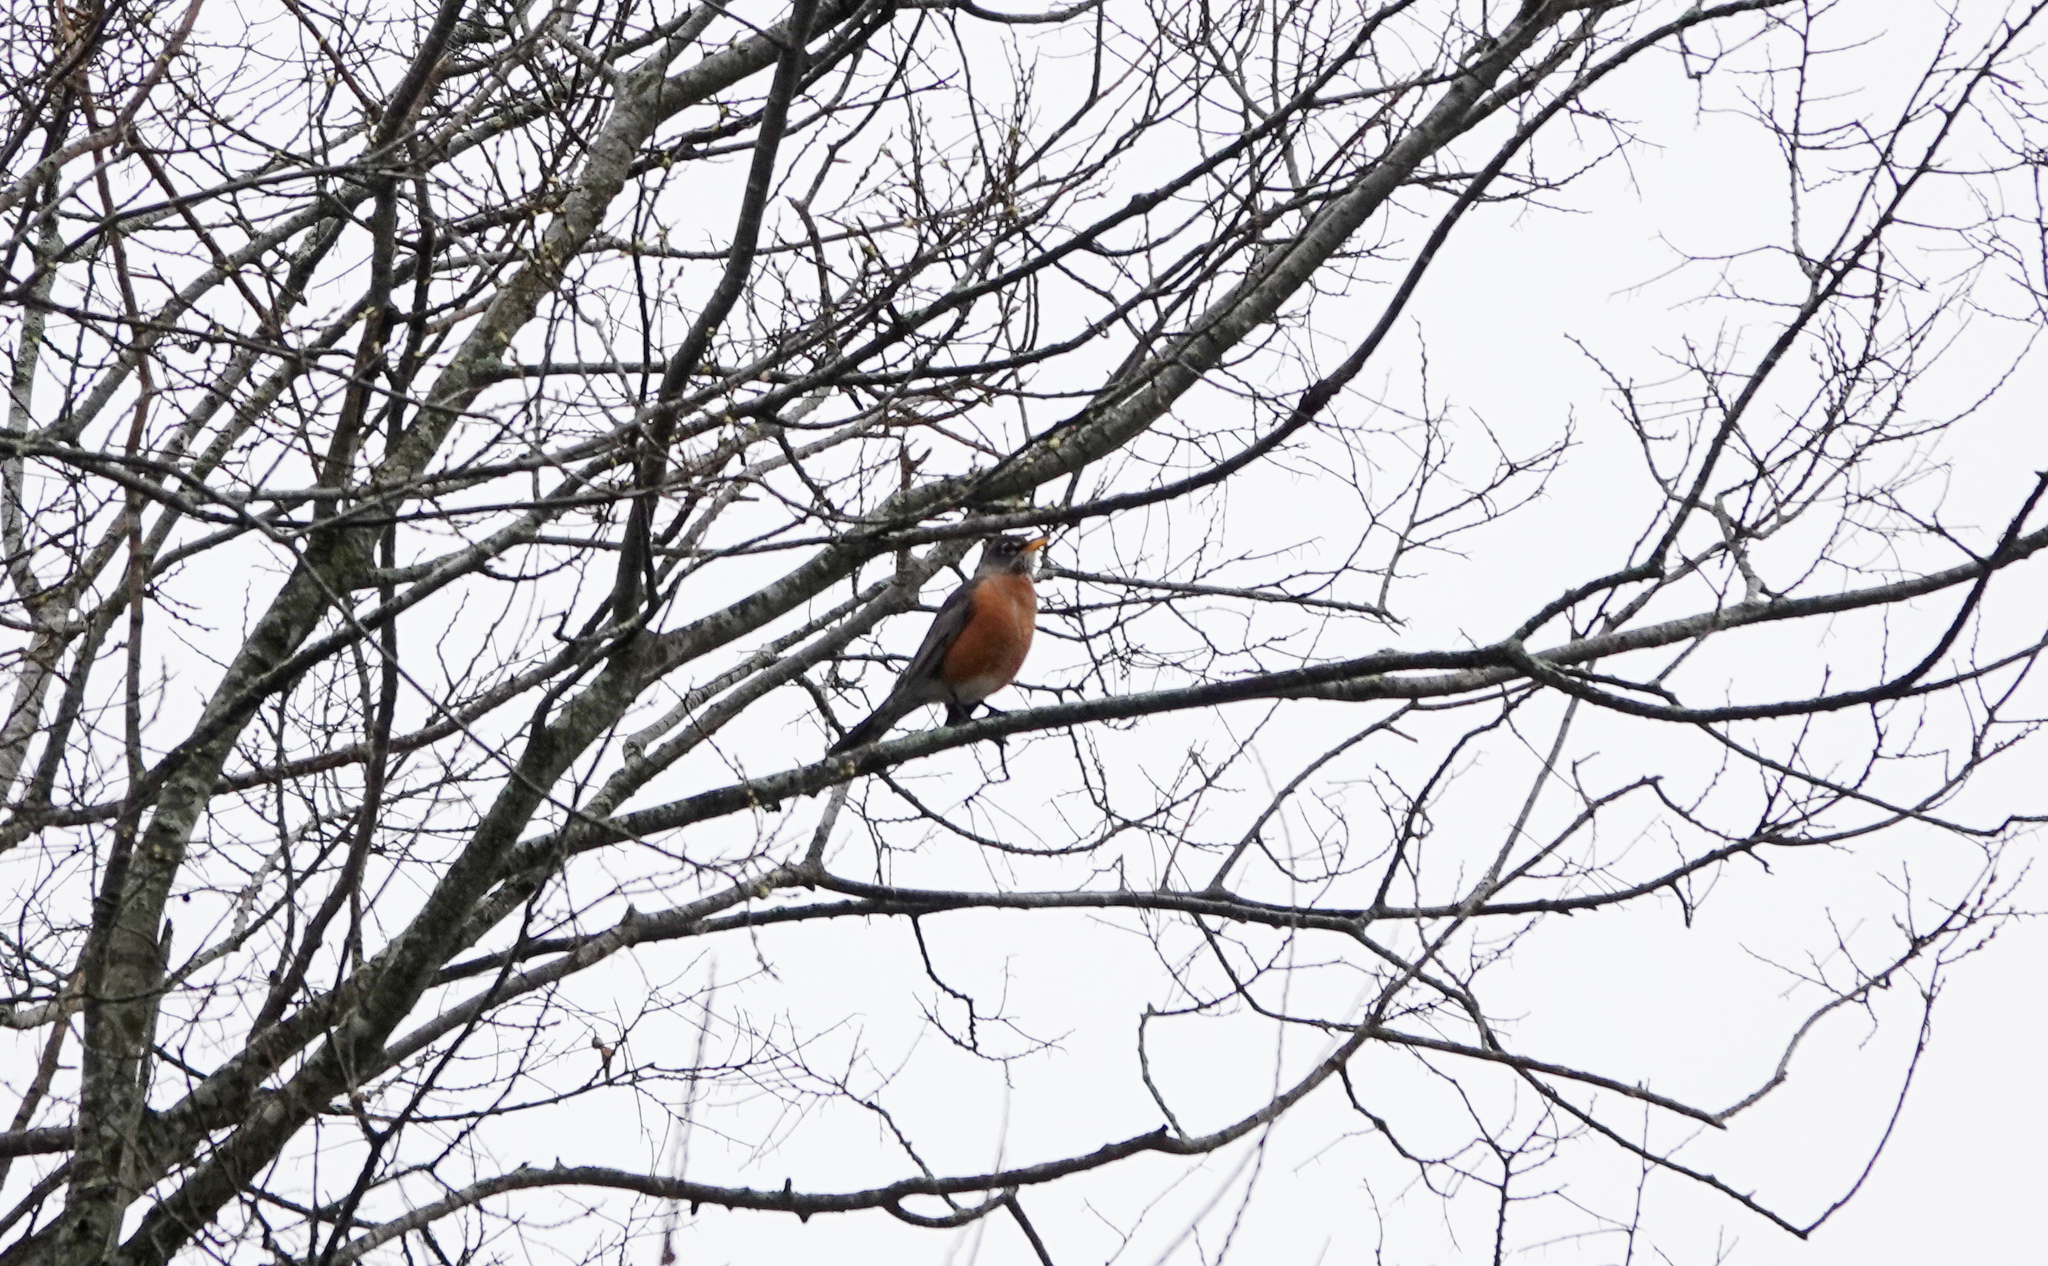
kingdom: Animalia
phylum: Chordata
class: Aves
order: Passeriformes
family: Turdidae
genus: Turdus
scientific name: Turdus migratorius
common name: American robin
